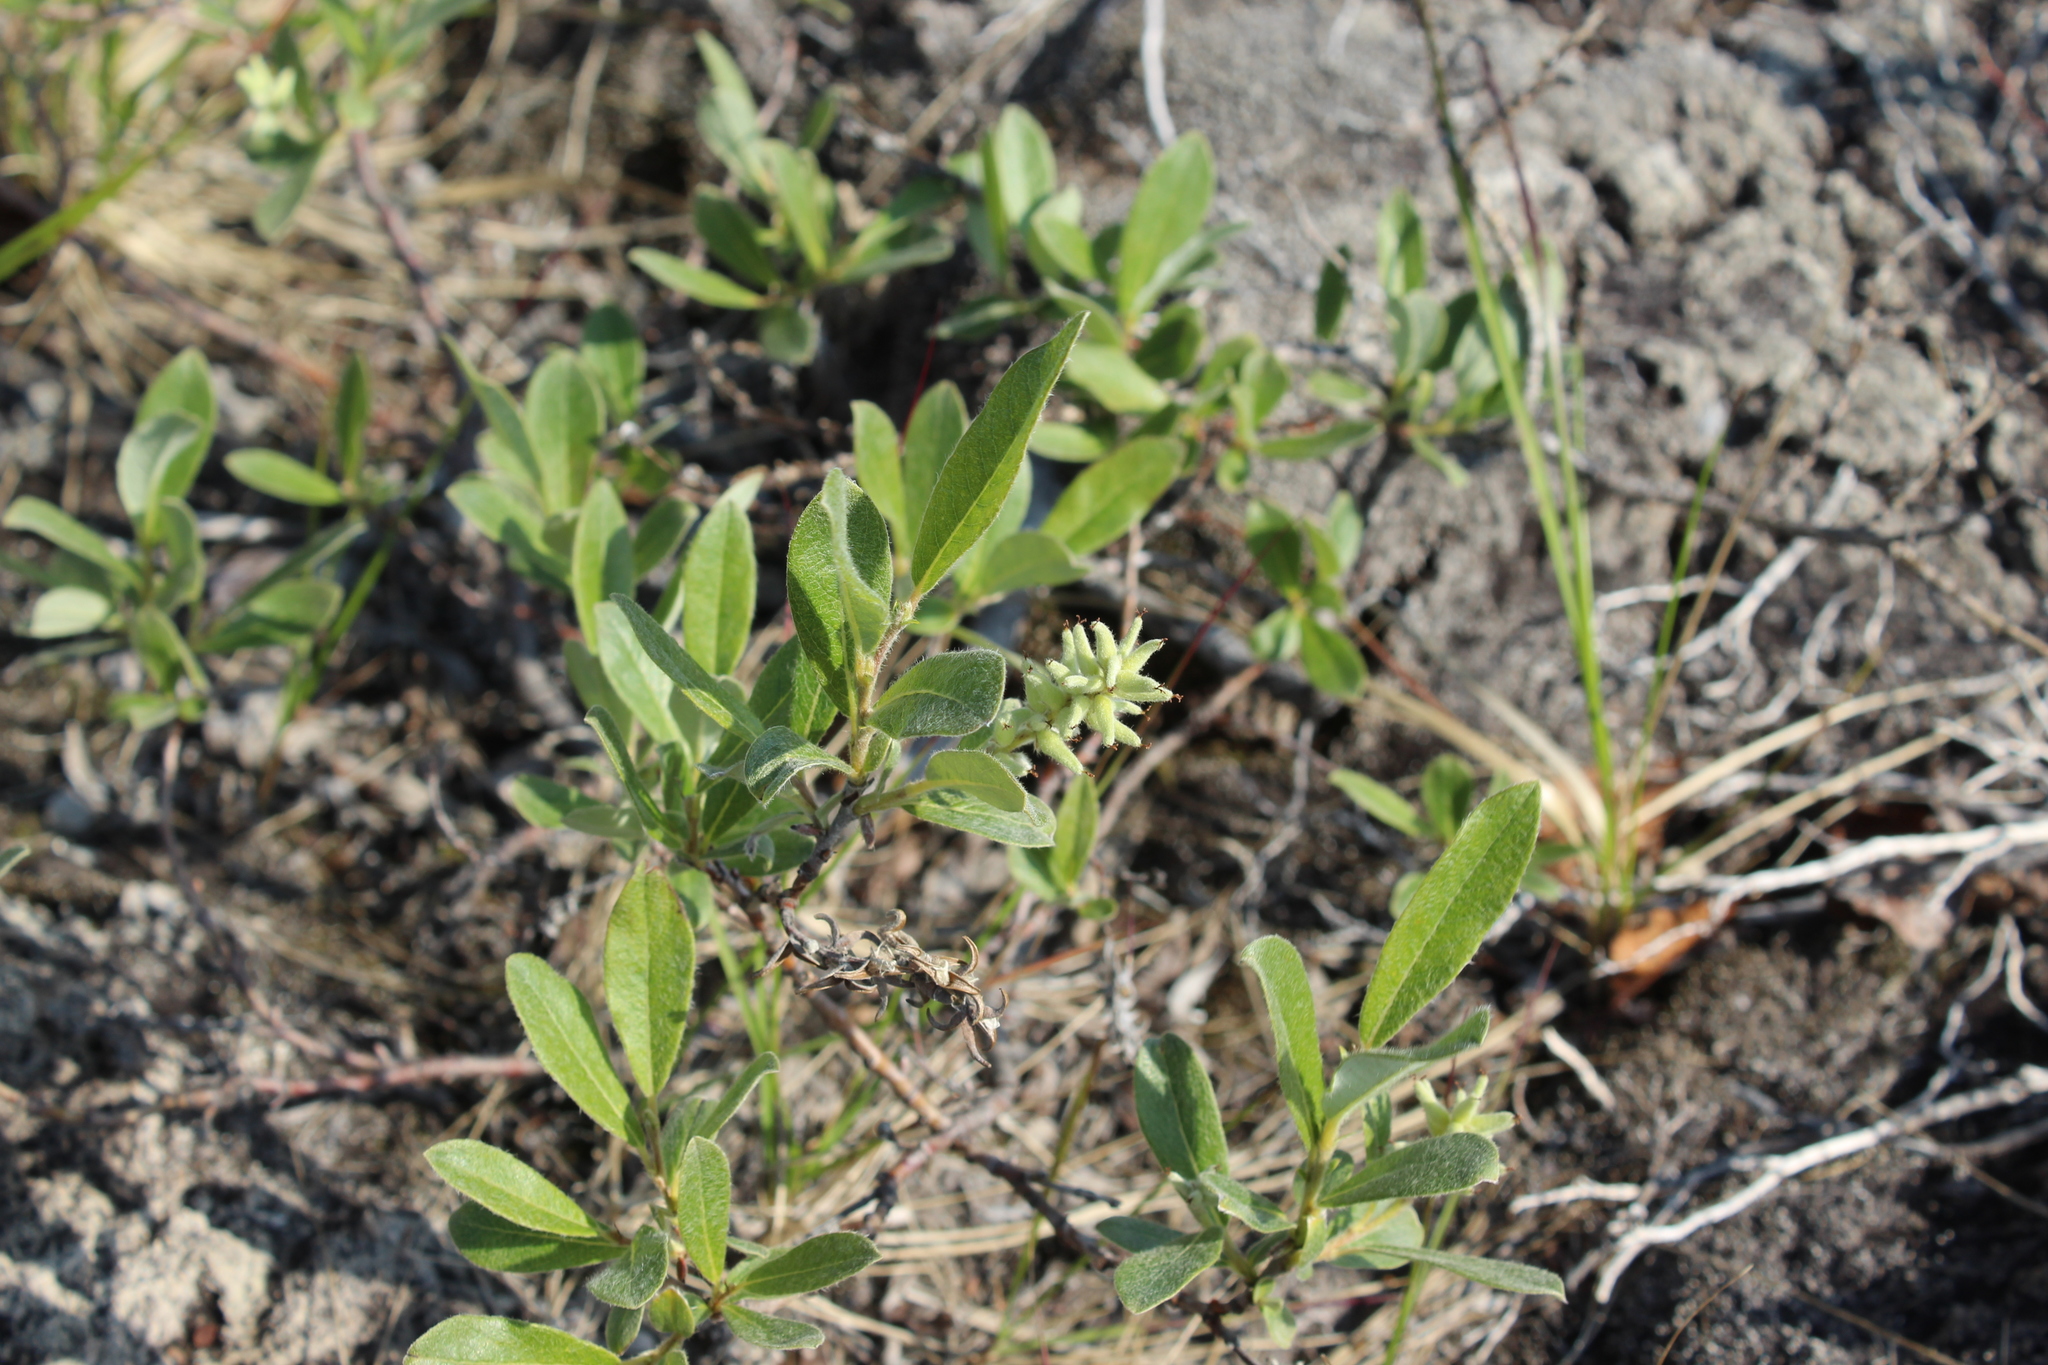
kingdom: Plantae
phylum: Tracheophyta
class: Magnoliopsida
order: Malpighiales
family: Salicaceae
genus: Salix
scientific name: Salix glauca
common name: Glaucous willow
